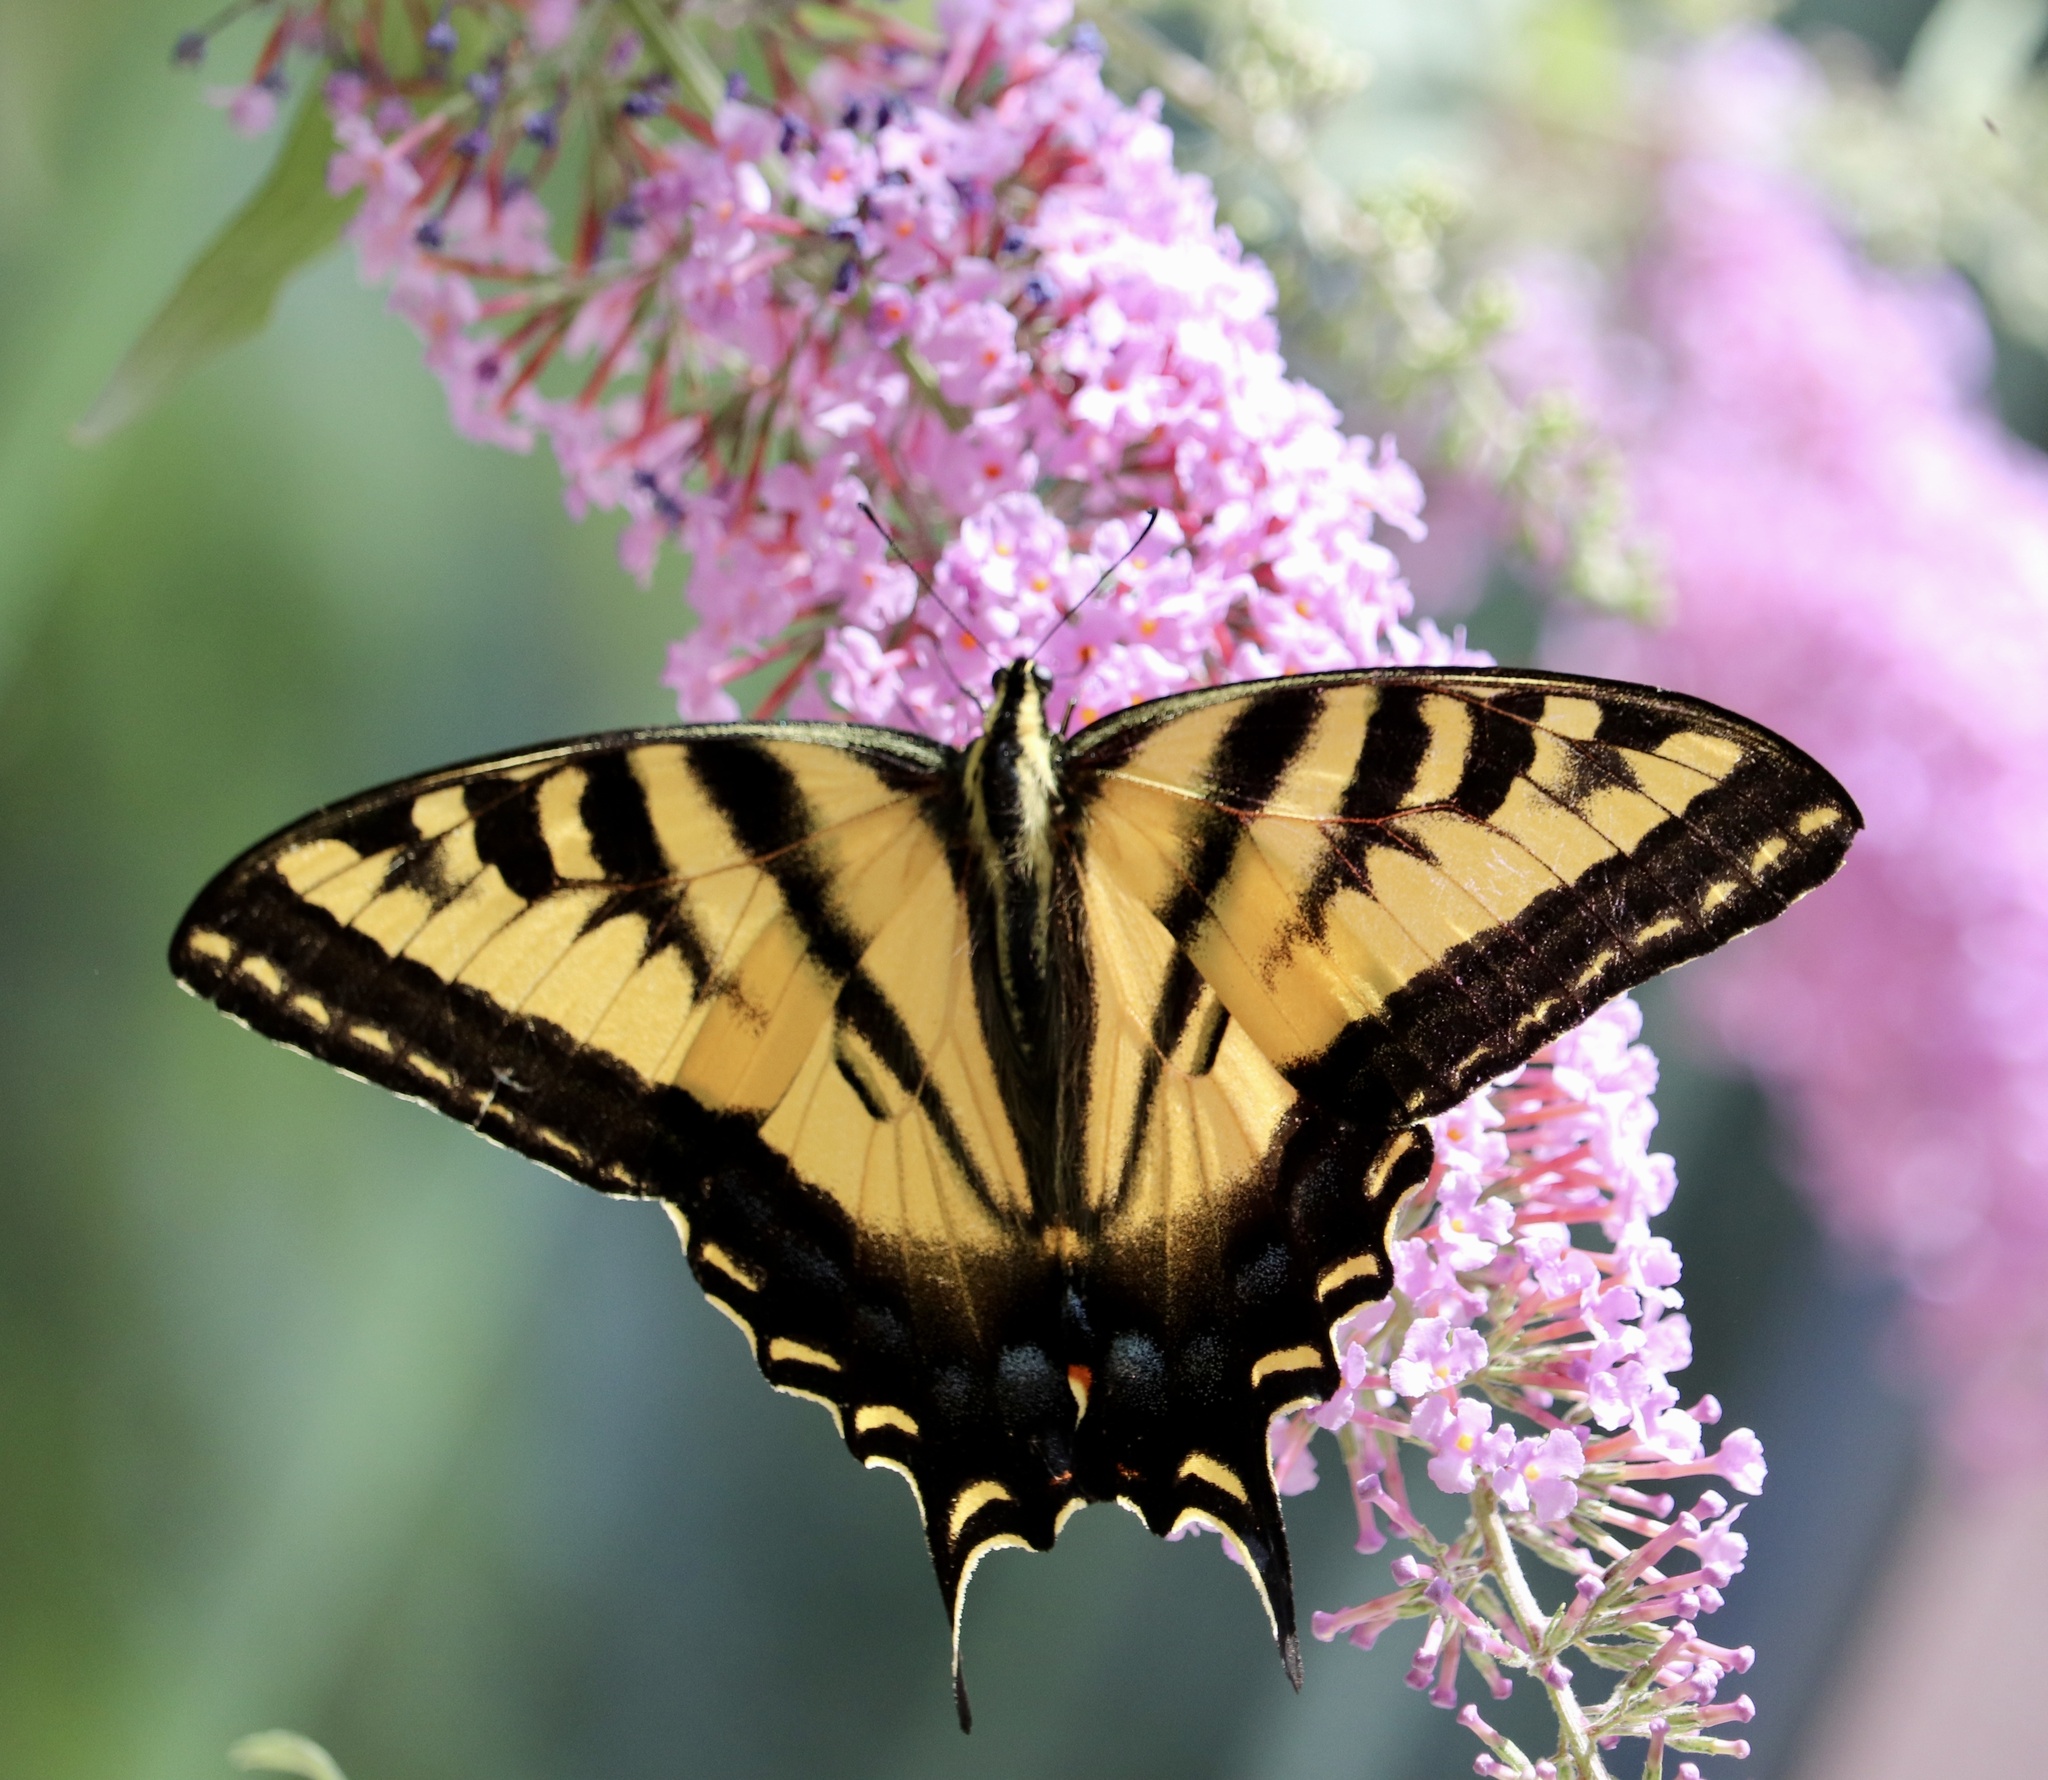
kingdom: Animalia
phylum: Arthropoda
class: Insecta
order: Lepidoptera
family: Papilionidae
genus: Papilio
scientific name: Papilio rutulus
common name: Western tiger swallowtail
